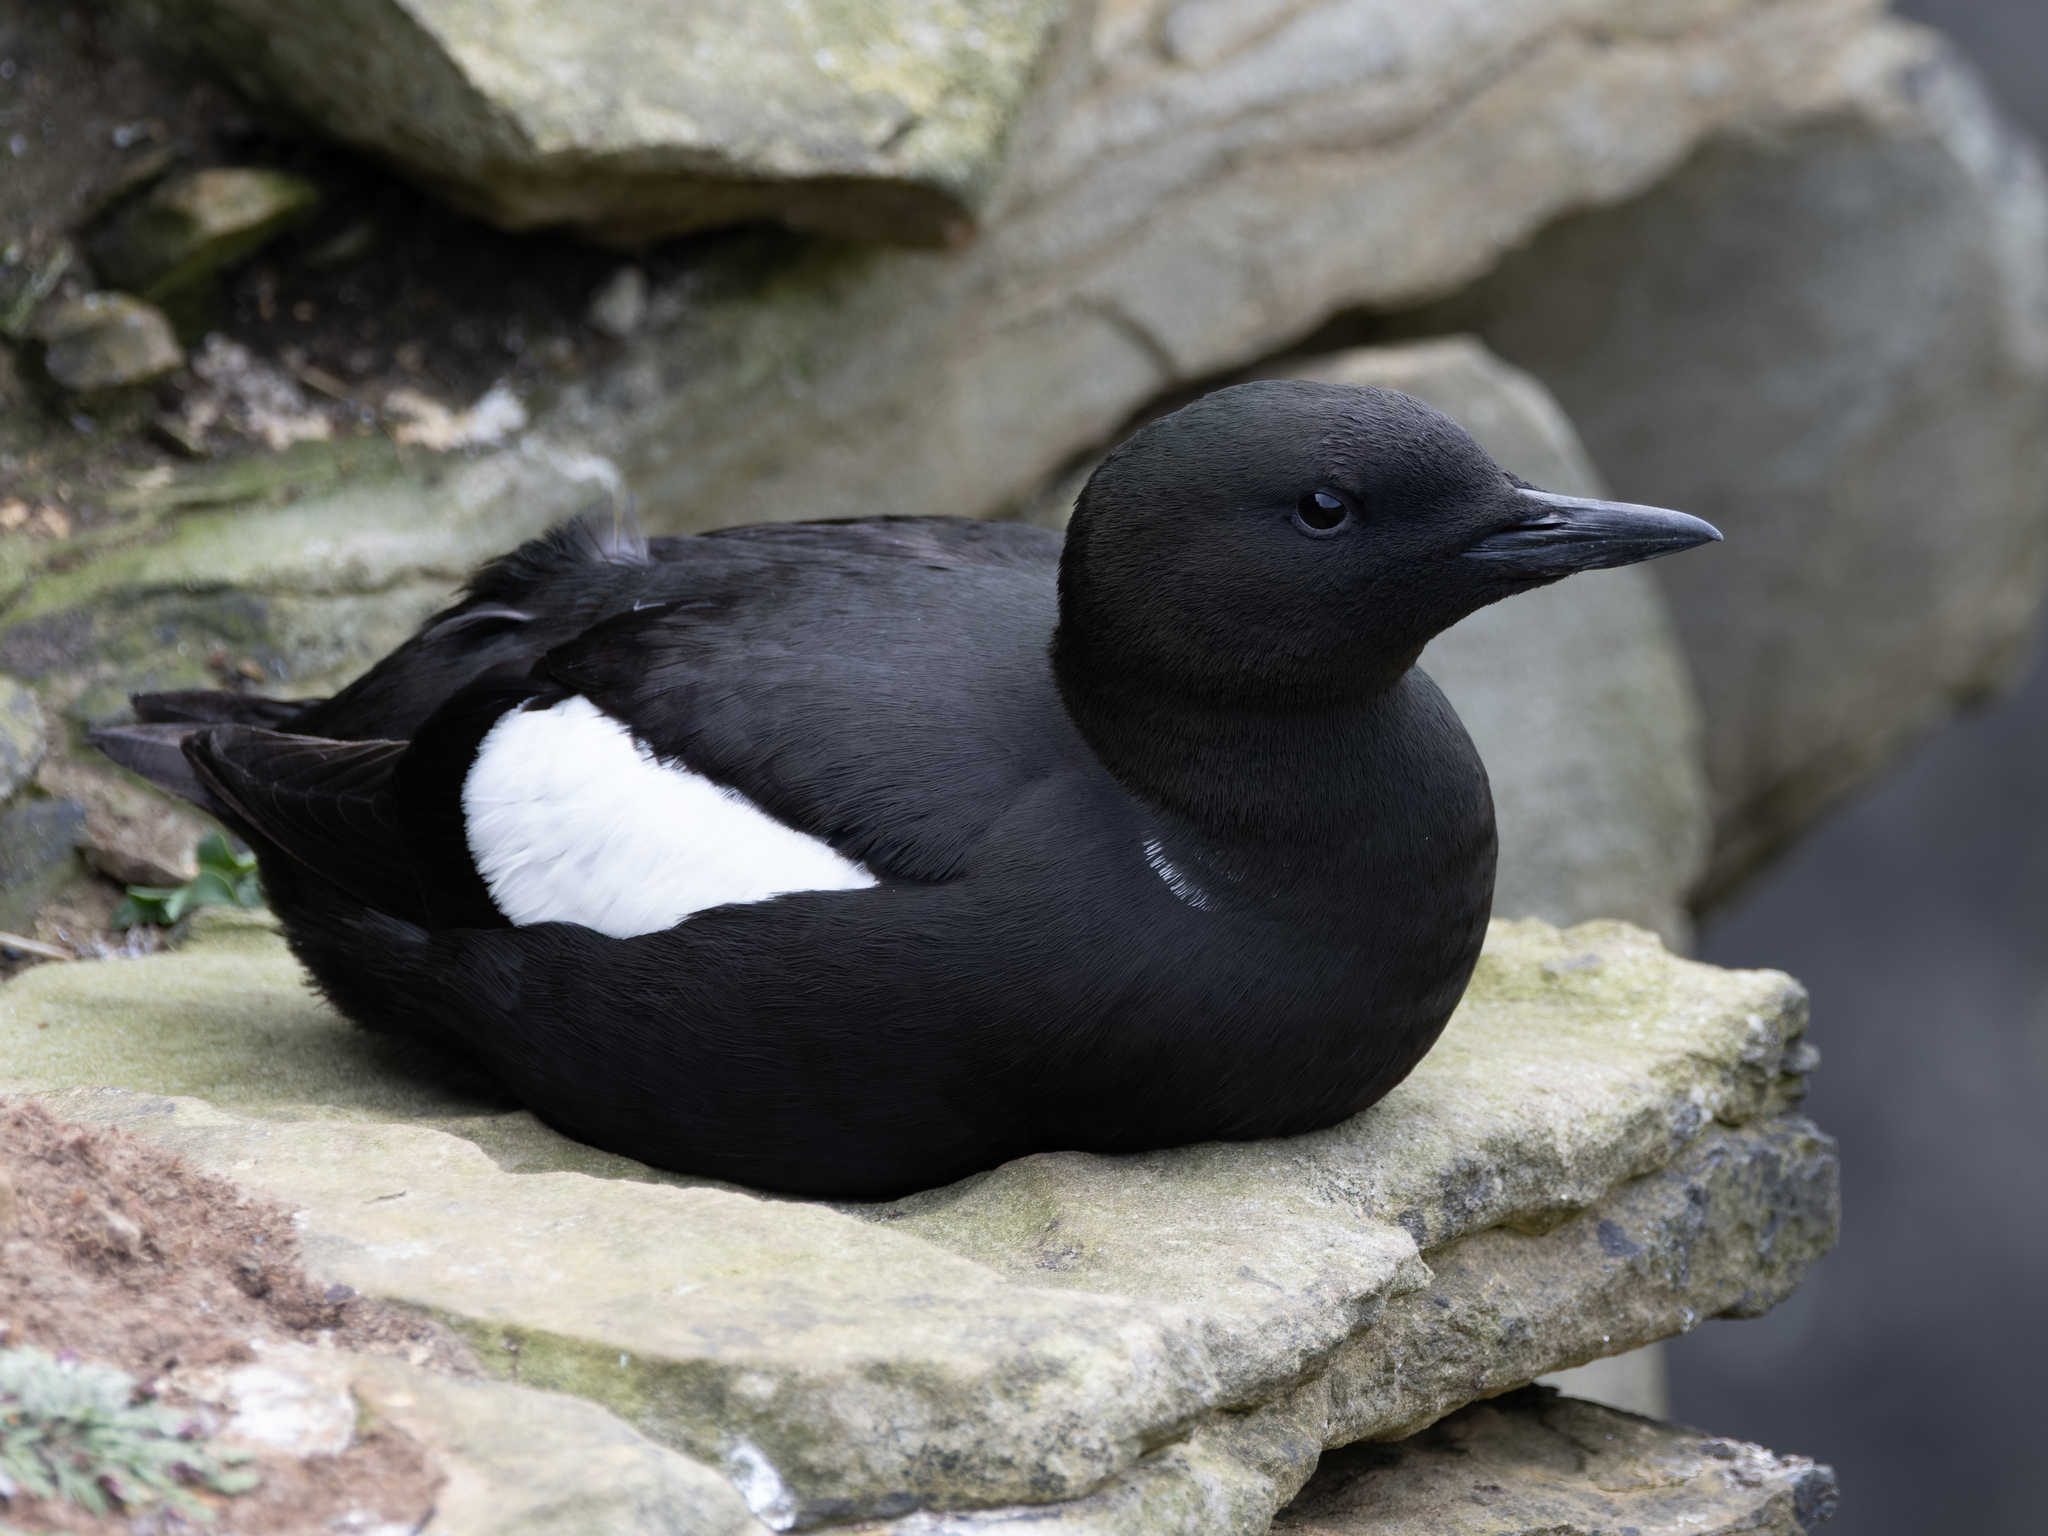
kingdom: Animalia
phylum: Chordata
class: Aves
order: Charadriiformes
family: Alcidae
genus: Cepphus
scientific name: Cepphus grylle
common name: Black guillemot
